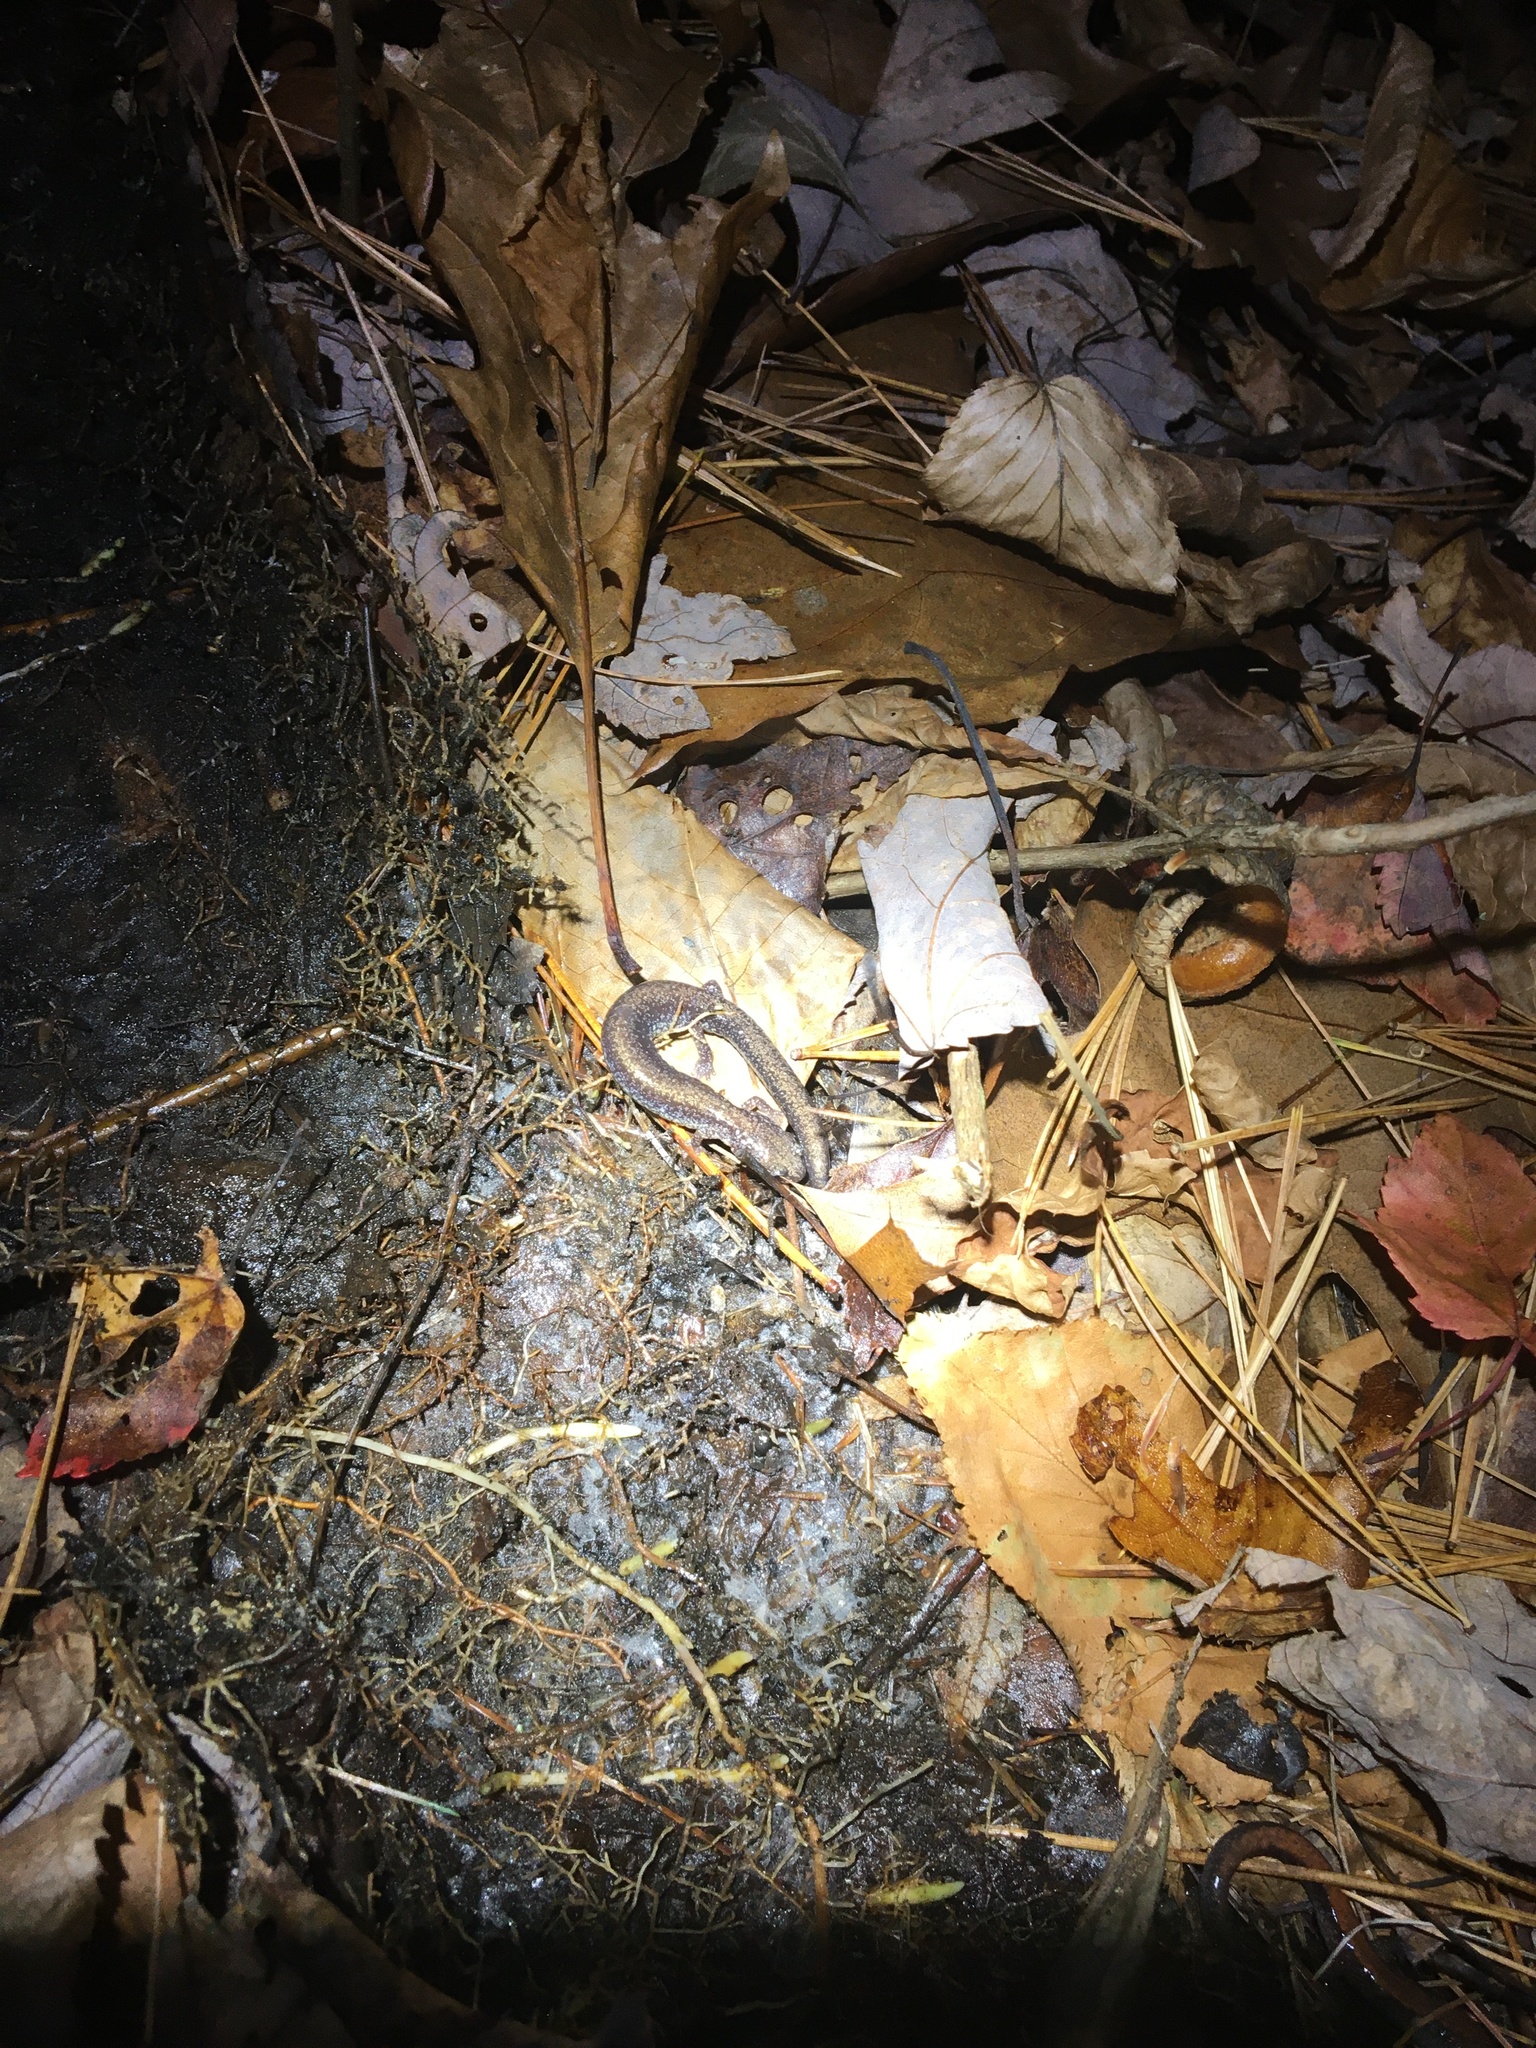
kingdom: Animalia
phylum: Chordata
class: Amphibia
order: Caudata
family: Plethodontidae
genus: Plethodon
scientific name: Plethodon cinereus
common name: Redback salamander
